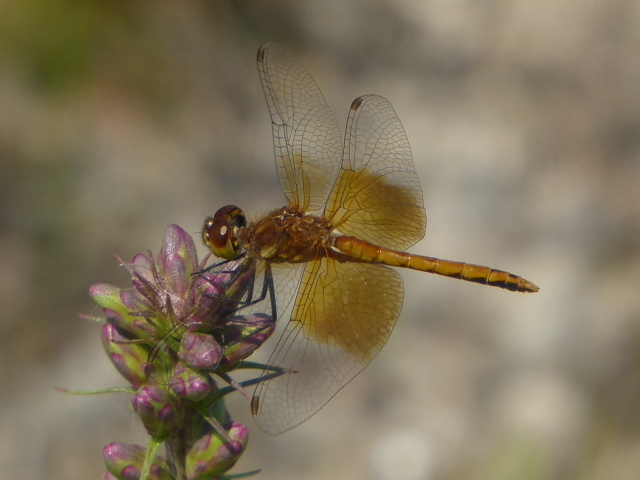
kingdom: Animalia
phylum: Arthropoda
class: Insecta
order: Odonata
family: Libellulidae
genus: Sympetrum
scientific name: Sympetrum semicinctum
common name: Band-winged meadowhawk
